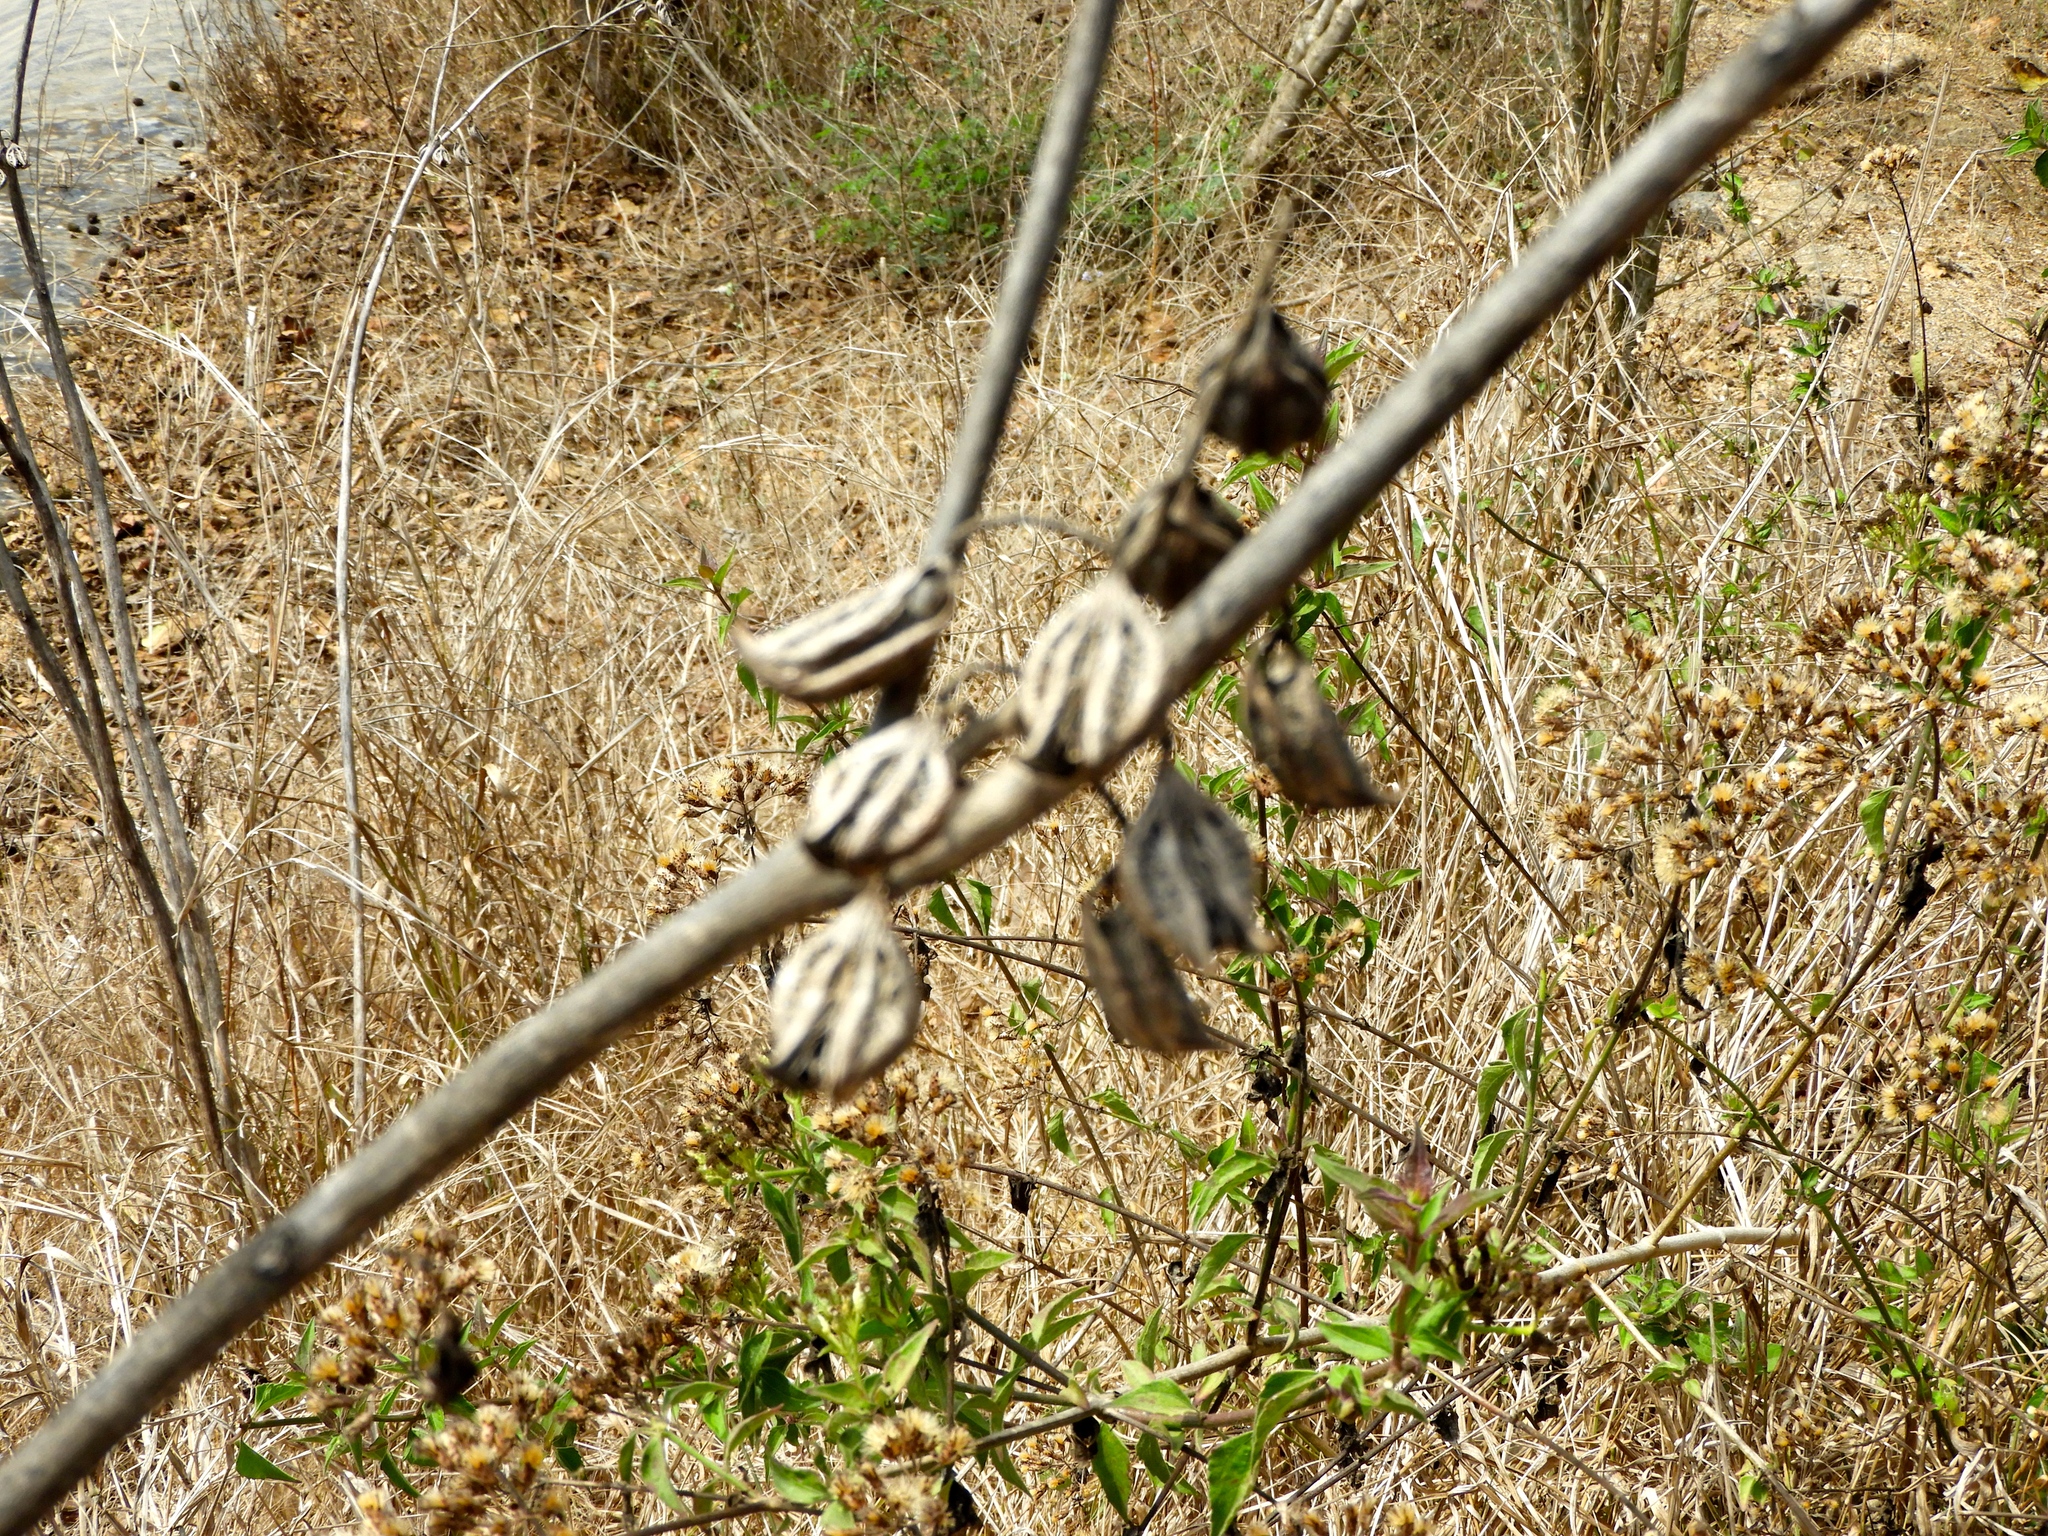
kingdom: Plantae
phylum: Tracheophyta
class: Magnoliopsida
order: Lamiales
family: Martyniaceae
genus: Martynia
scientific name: Martynia annua
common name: Tiger's-claw
